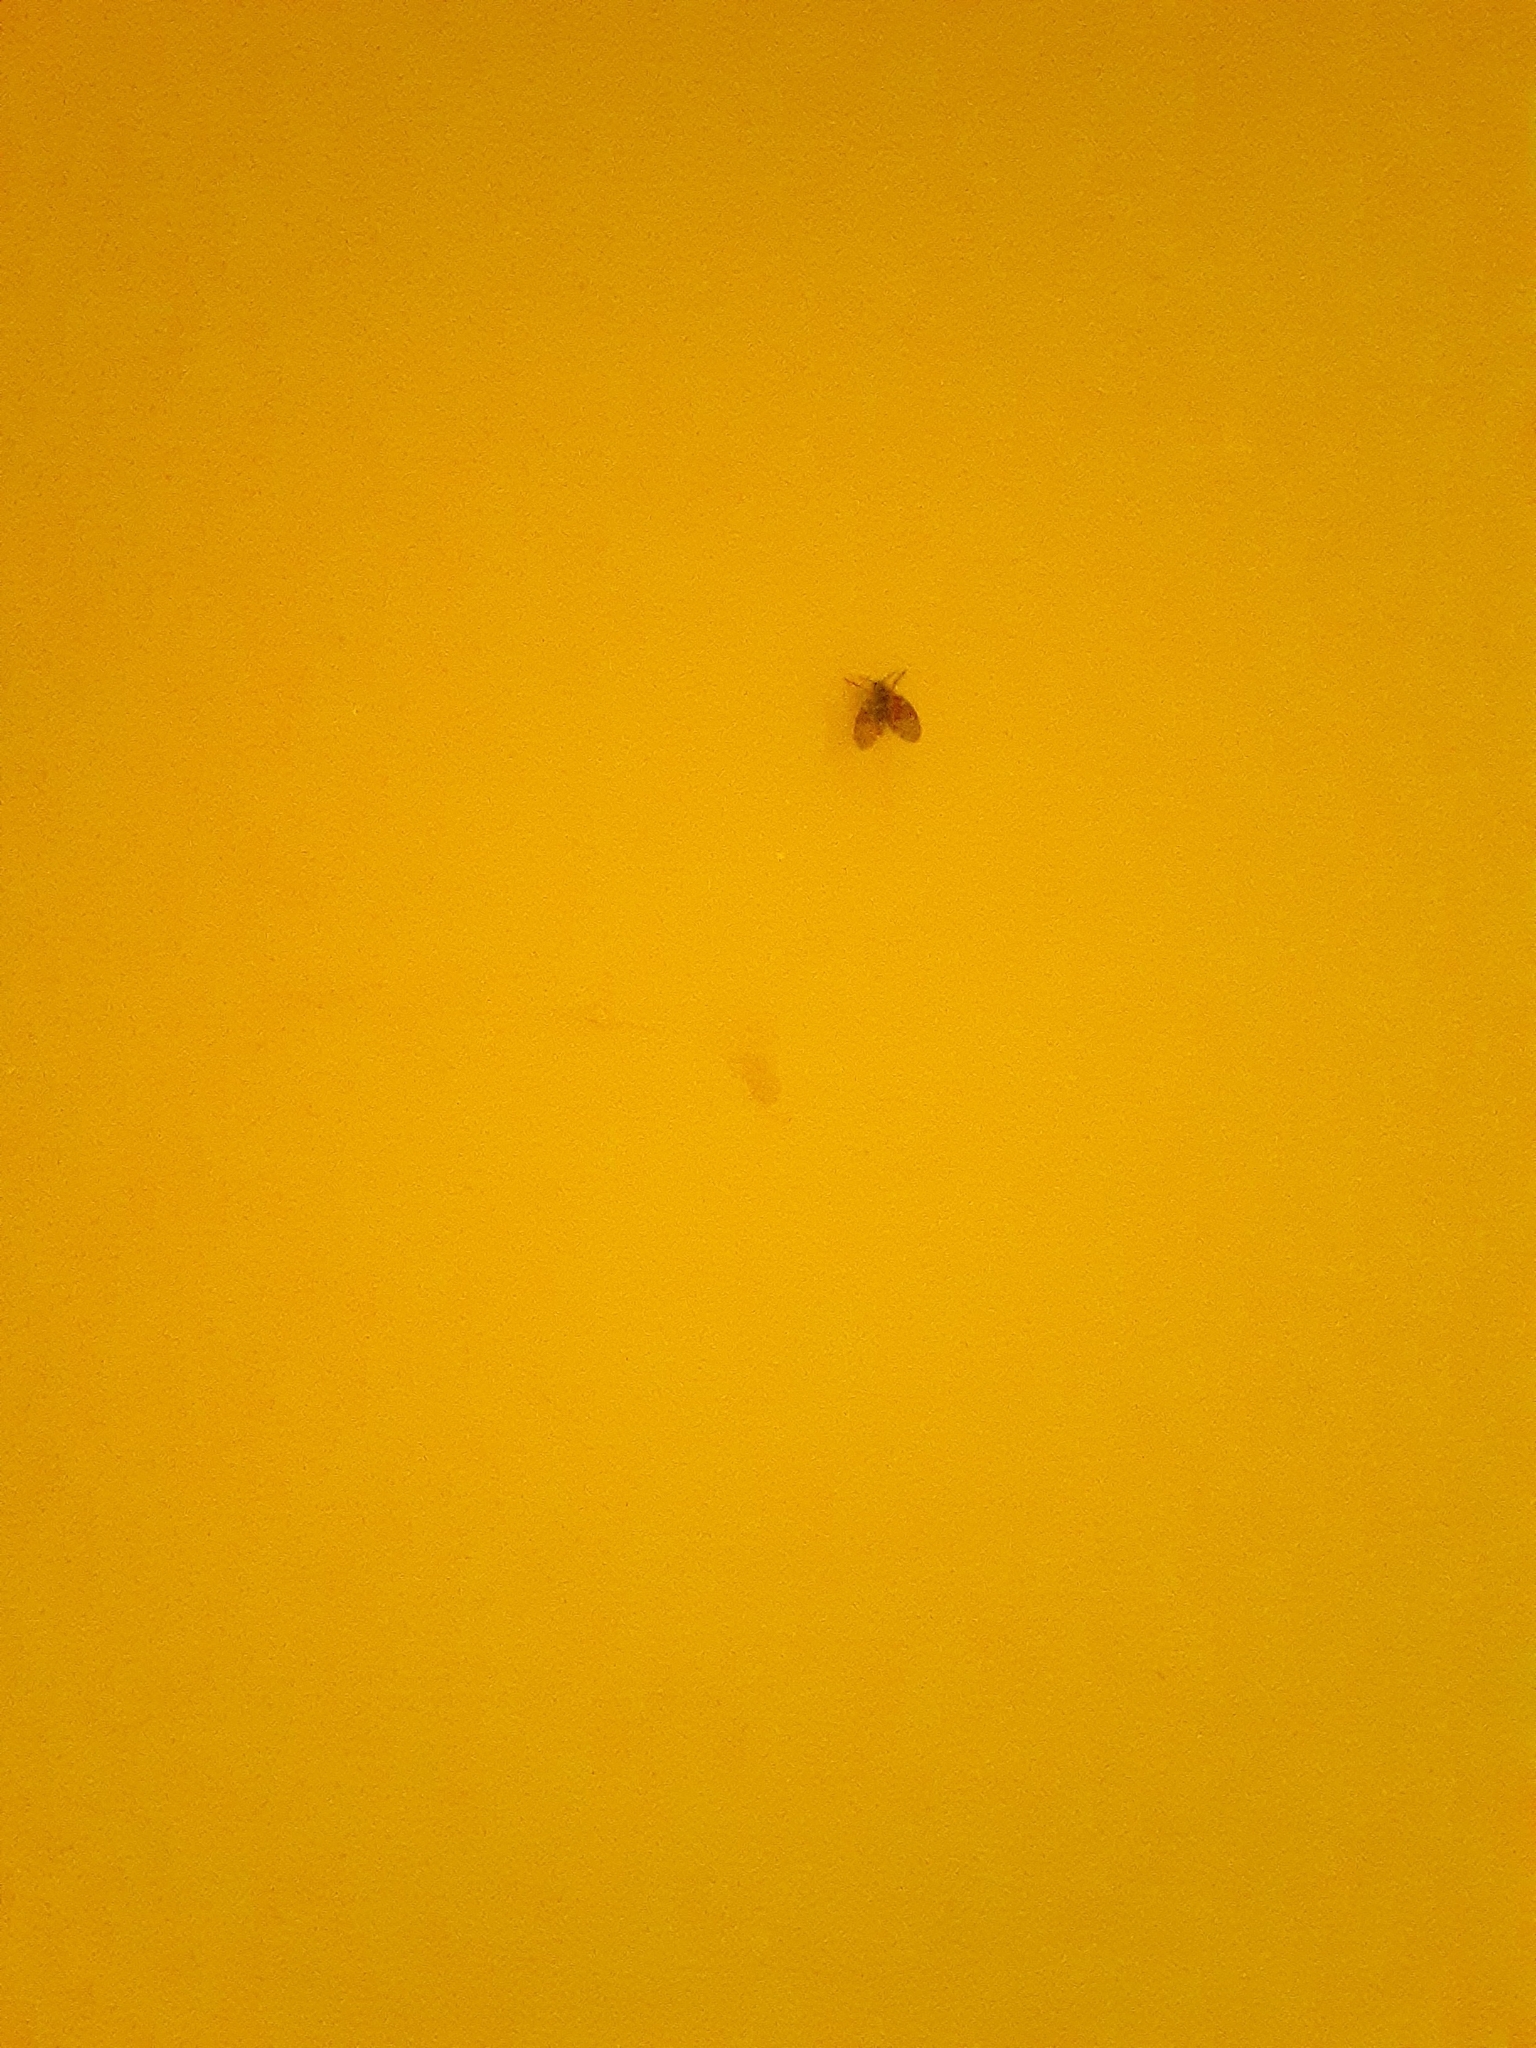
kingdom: Animalia
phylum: Arthropoda
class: Insecta
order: Diptera
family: Psychodidae
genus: Clogmia
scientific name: Clogmia albipunctatus
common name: White-spotted moth fly
